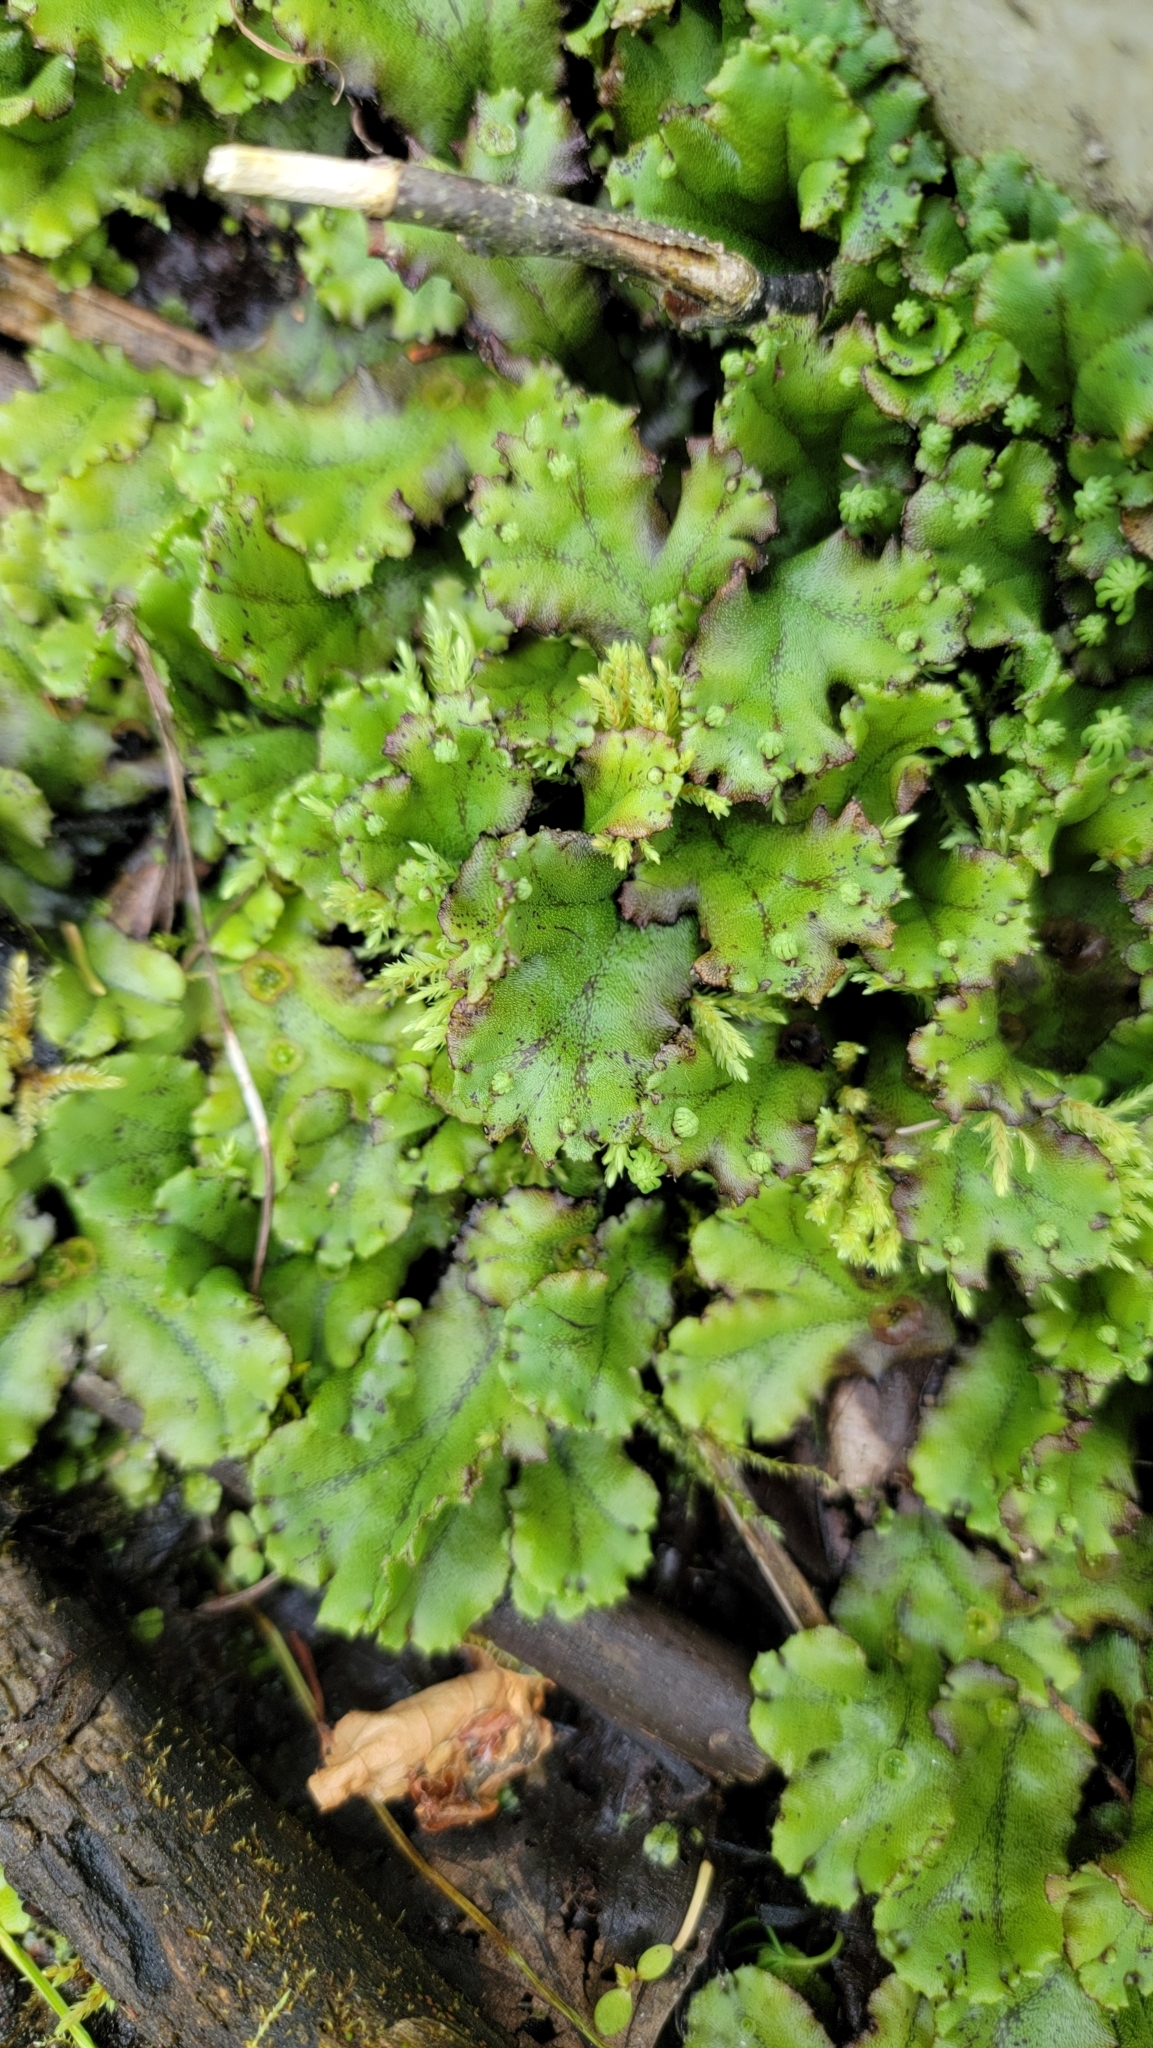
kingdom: Plantae
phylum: Marchantiophyta
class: Marchantiopsida
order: Marchantiales
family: Marchantiaceae
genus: Marchantia
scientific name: Marchantia polymorpha
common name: Common liverwort
